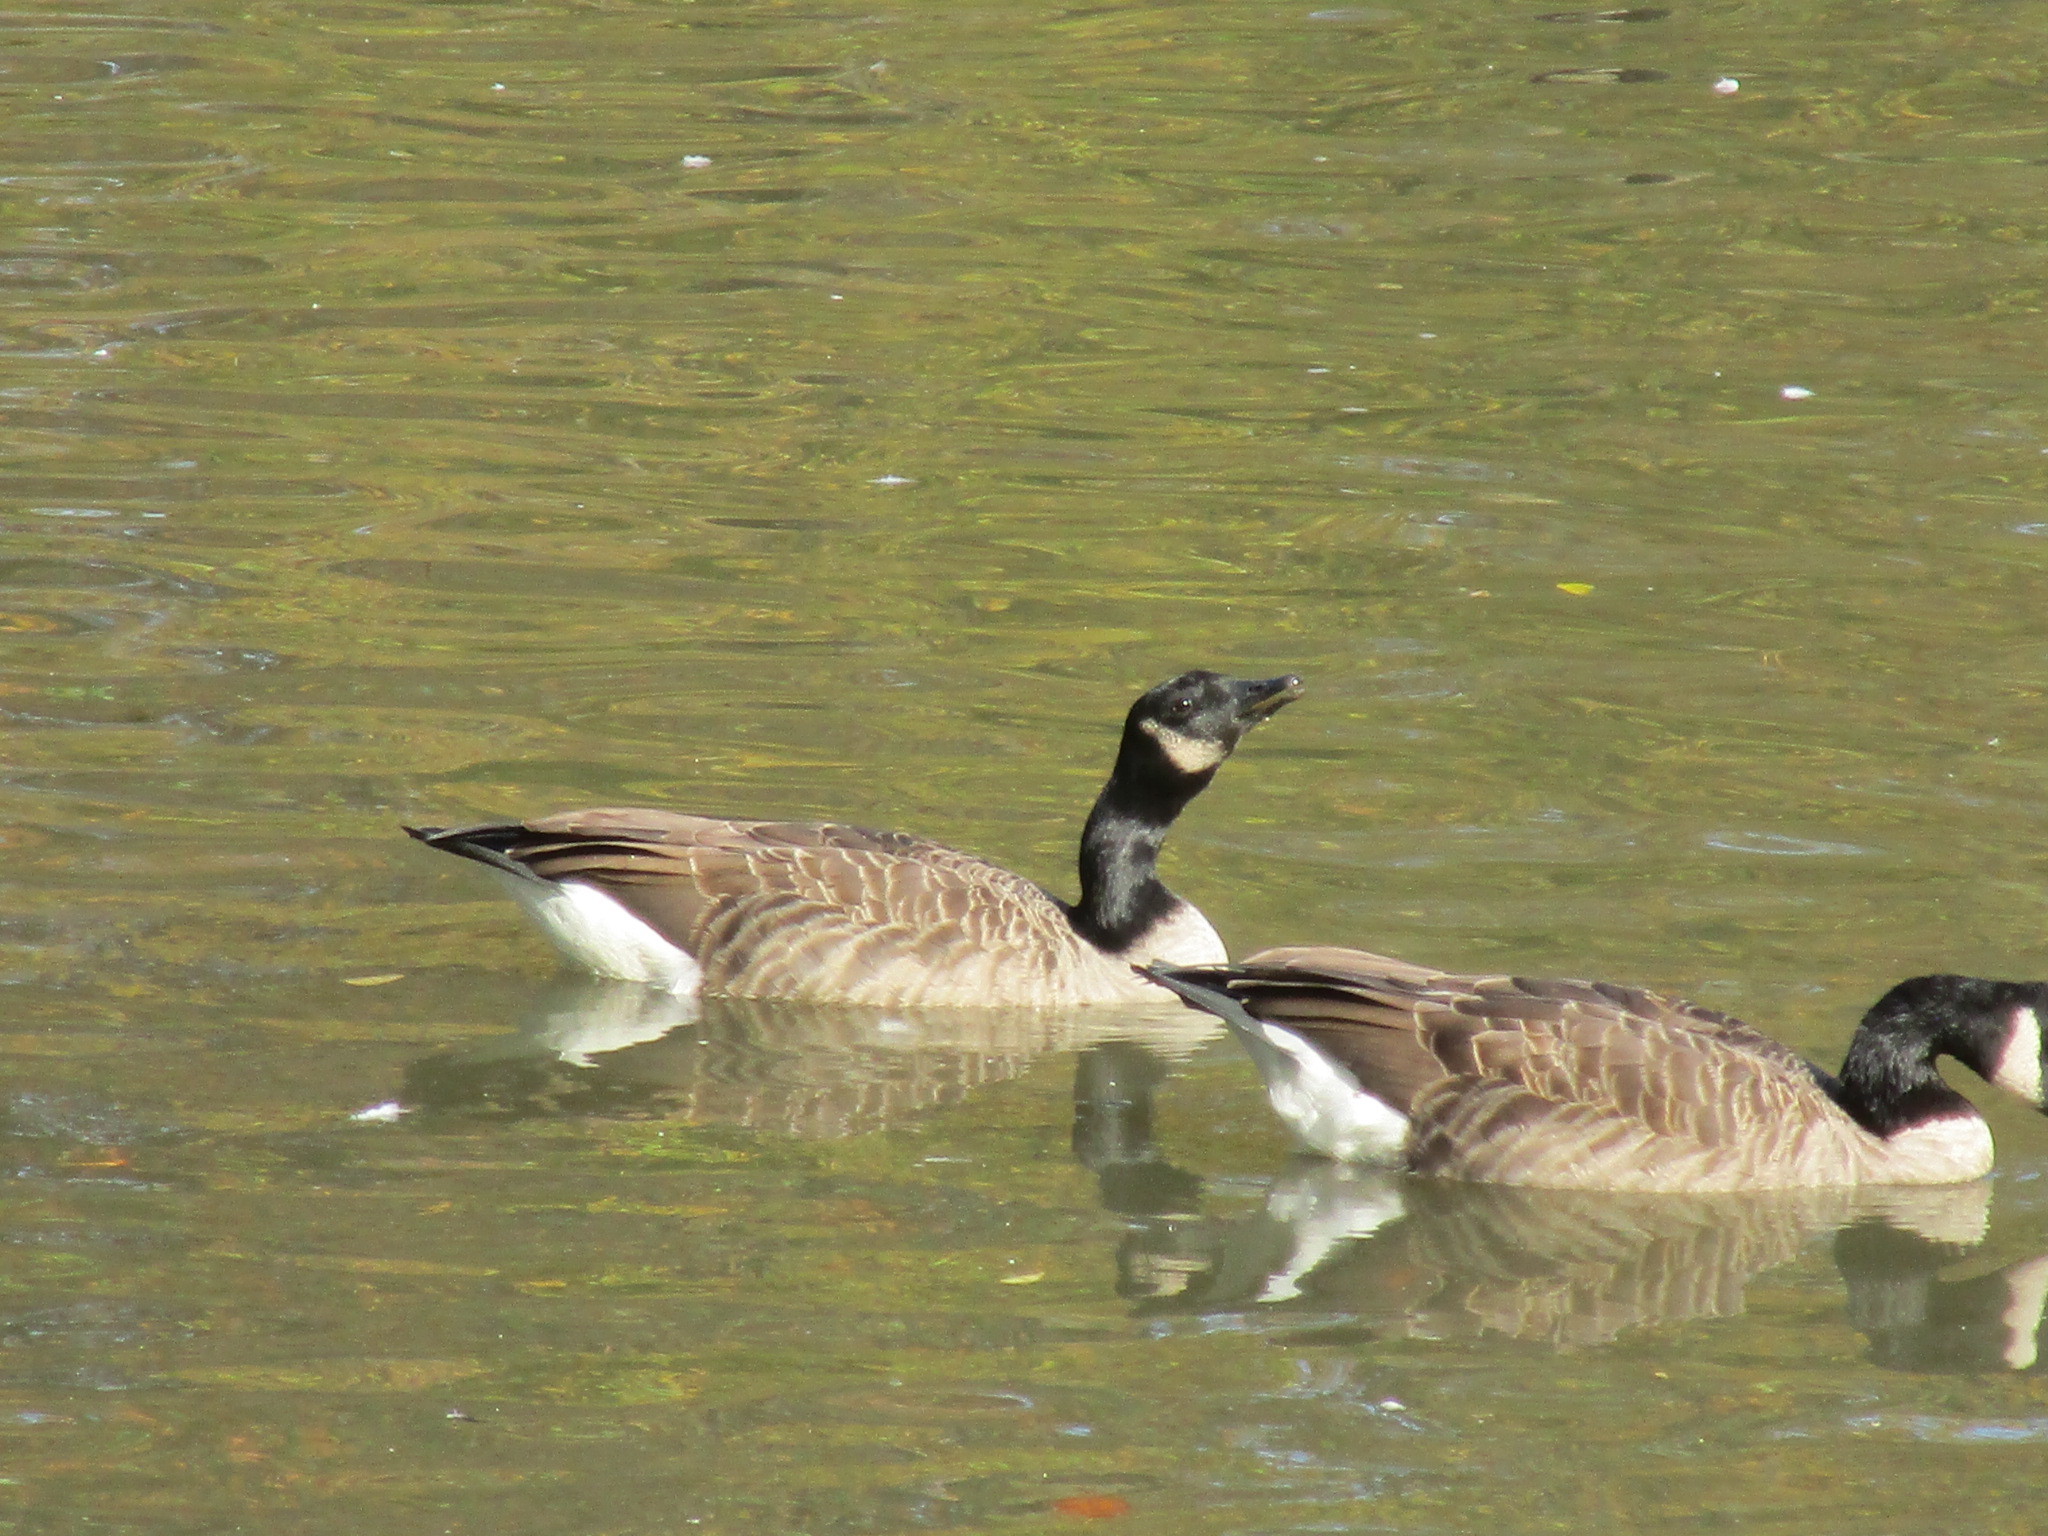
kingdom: Animalia
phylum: Chordata
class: Aves
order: Anseriformes
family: Anatidae
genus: Branta
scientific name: Branta canadensis
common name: Canada goose
